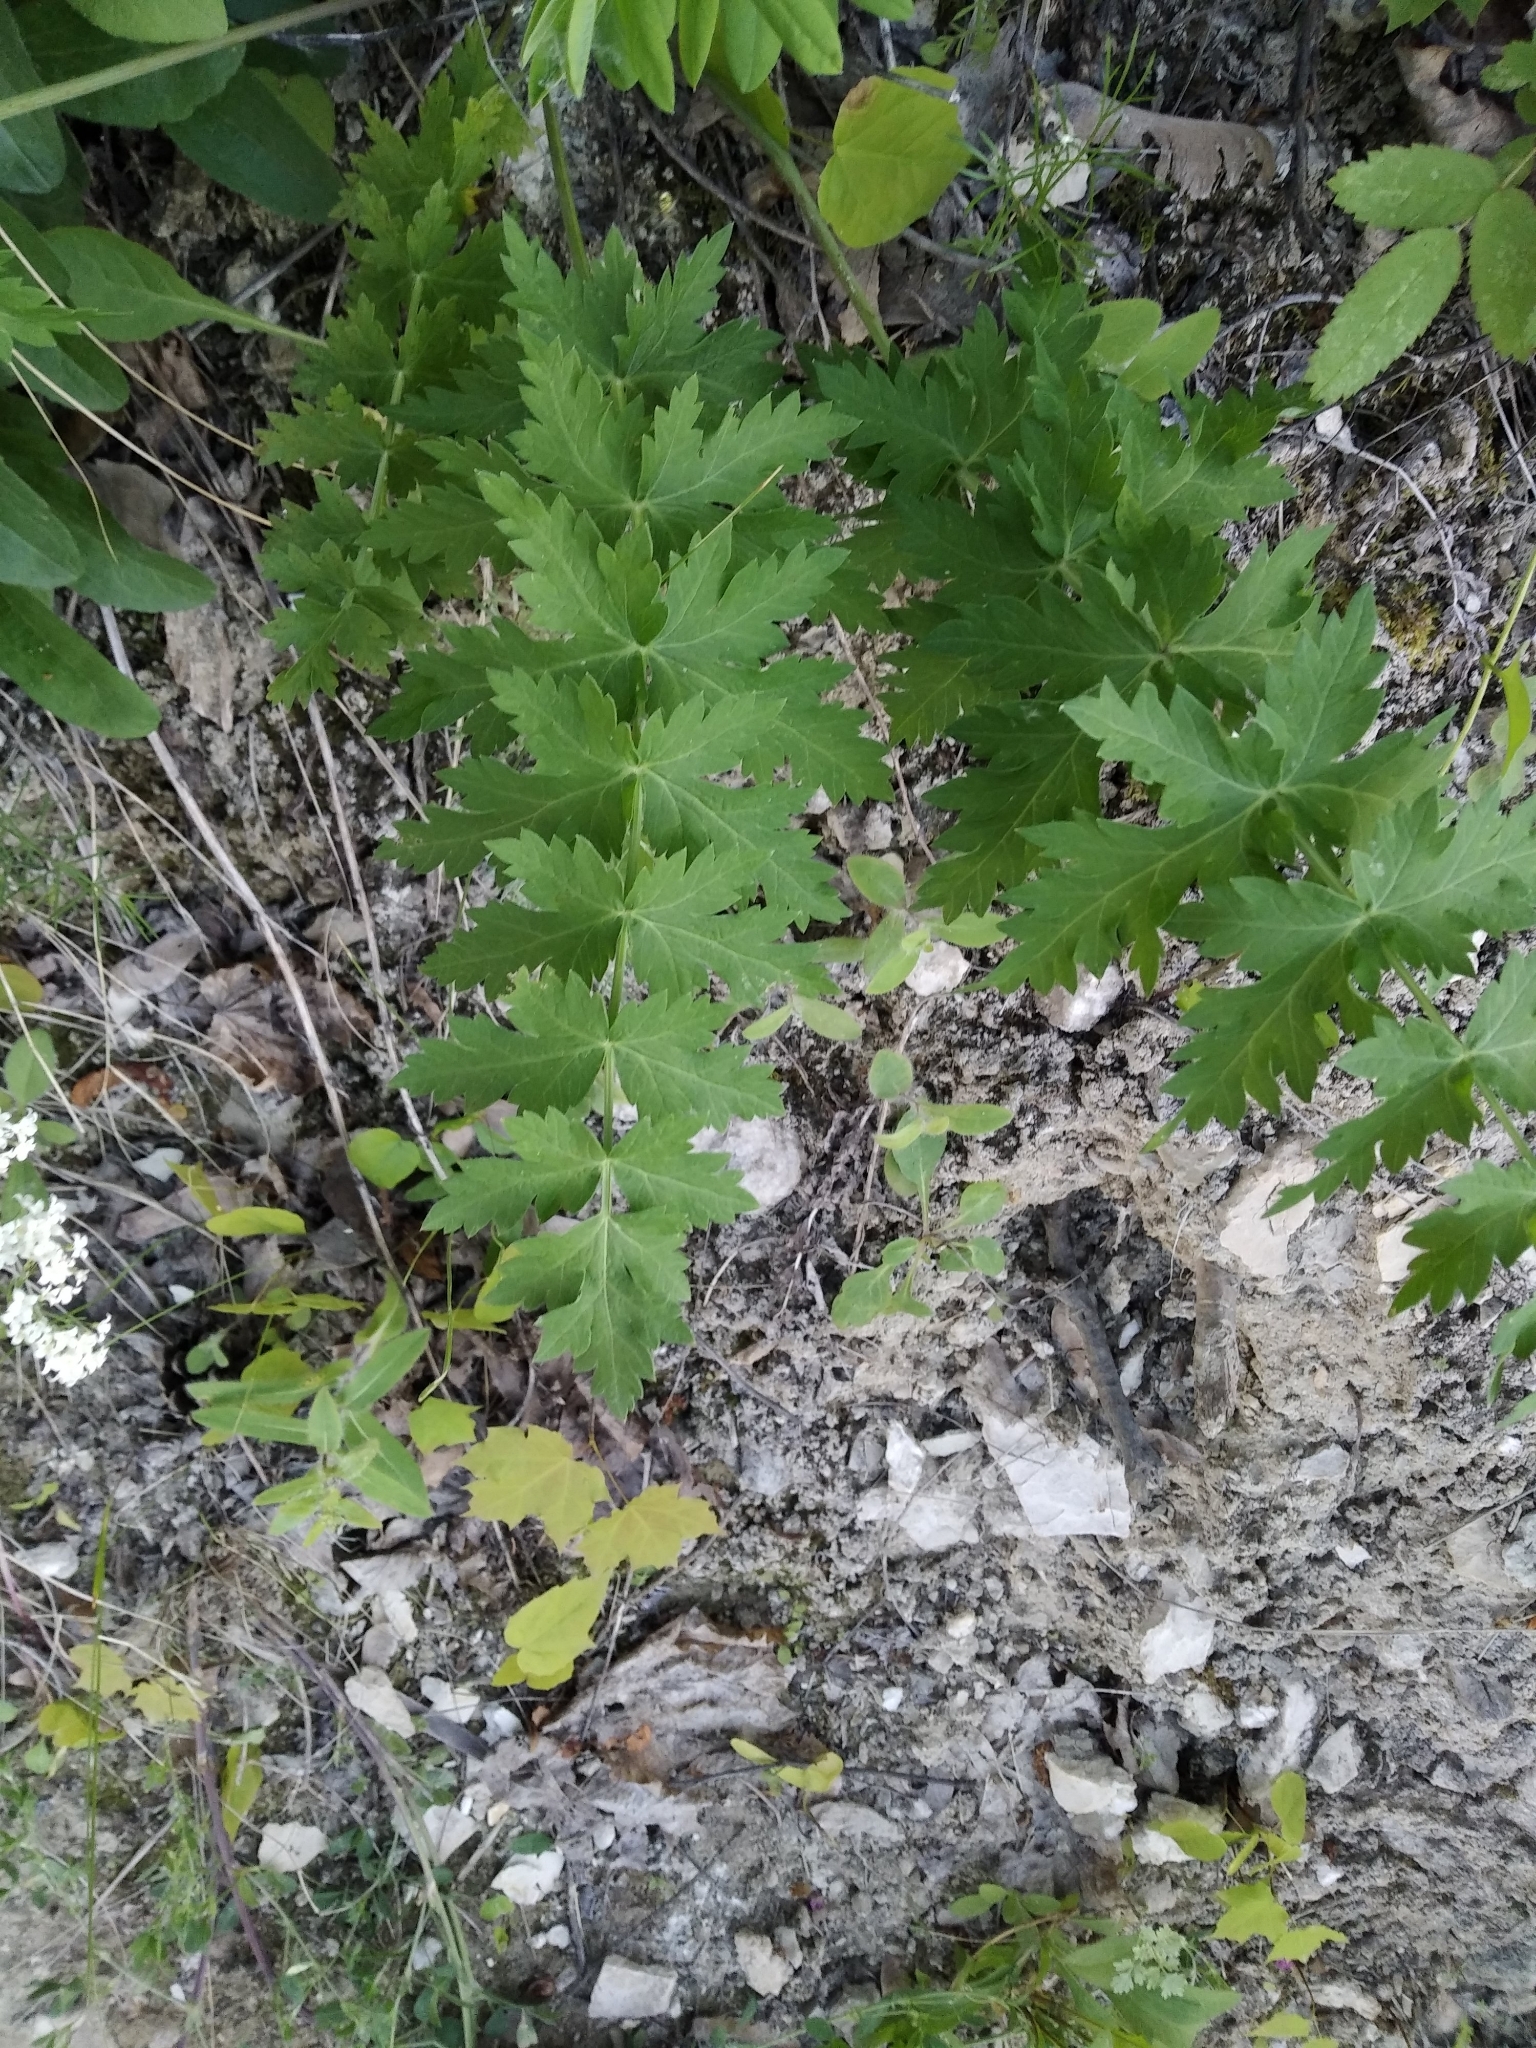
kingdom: Plantae
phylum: Tracheophyta
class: Magnoliopsida
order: Apiales
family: Apiaceae
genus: Seseli
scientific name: Seseli libanotis
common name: Mooncarrot
